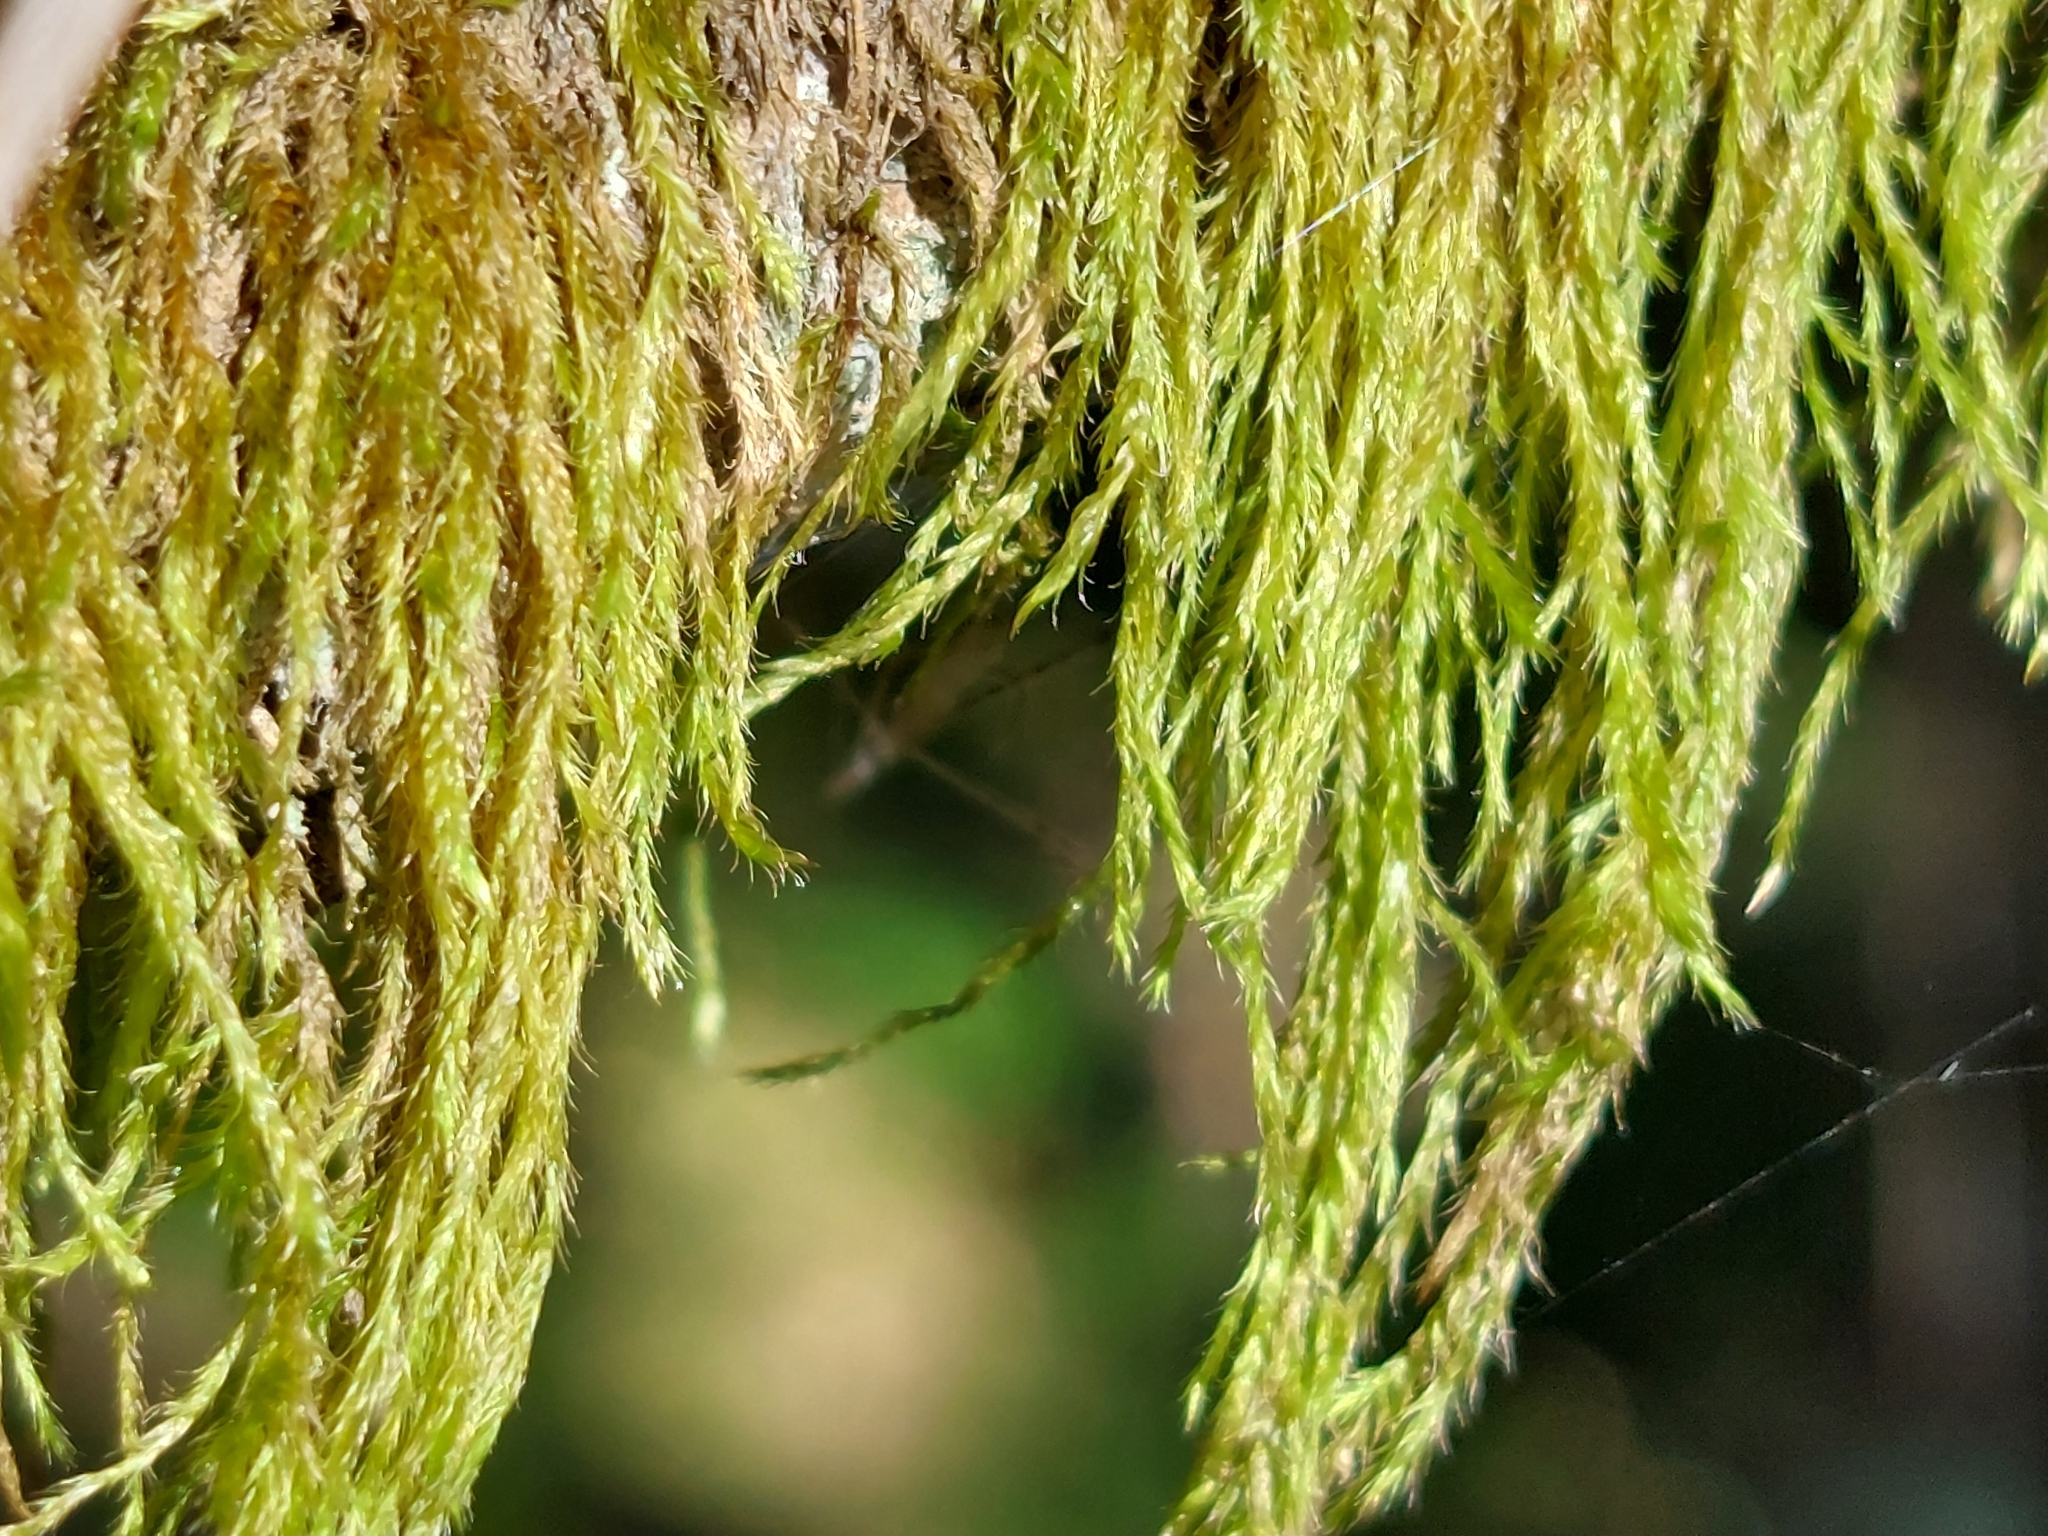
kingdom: Plantae
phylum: Bryophyta
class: Bryopsida
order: Hypnales
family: Hypnaceae
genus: Hypnum
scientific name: Hypnum cupressiforme
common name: Cypress-leaved plait-moss
